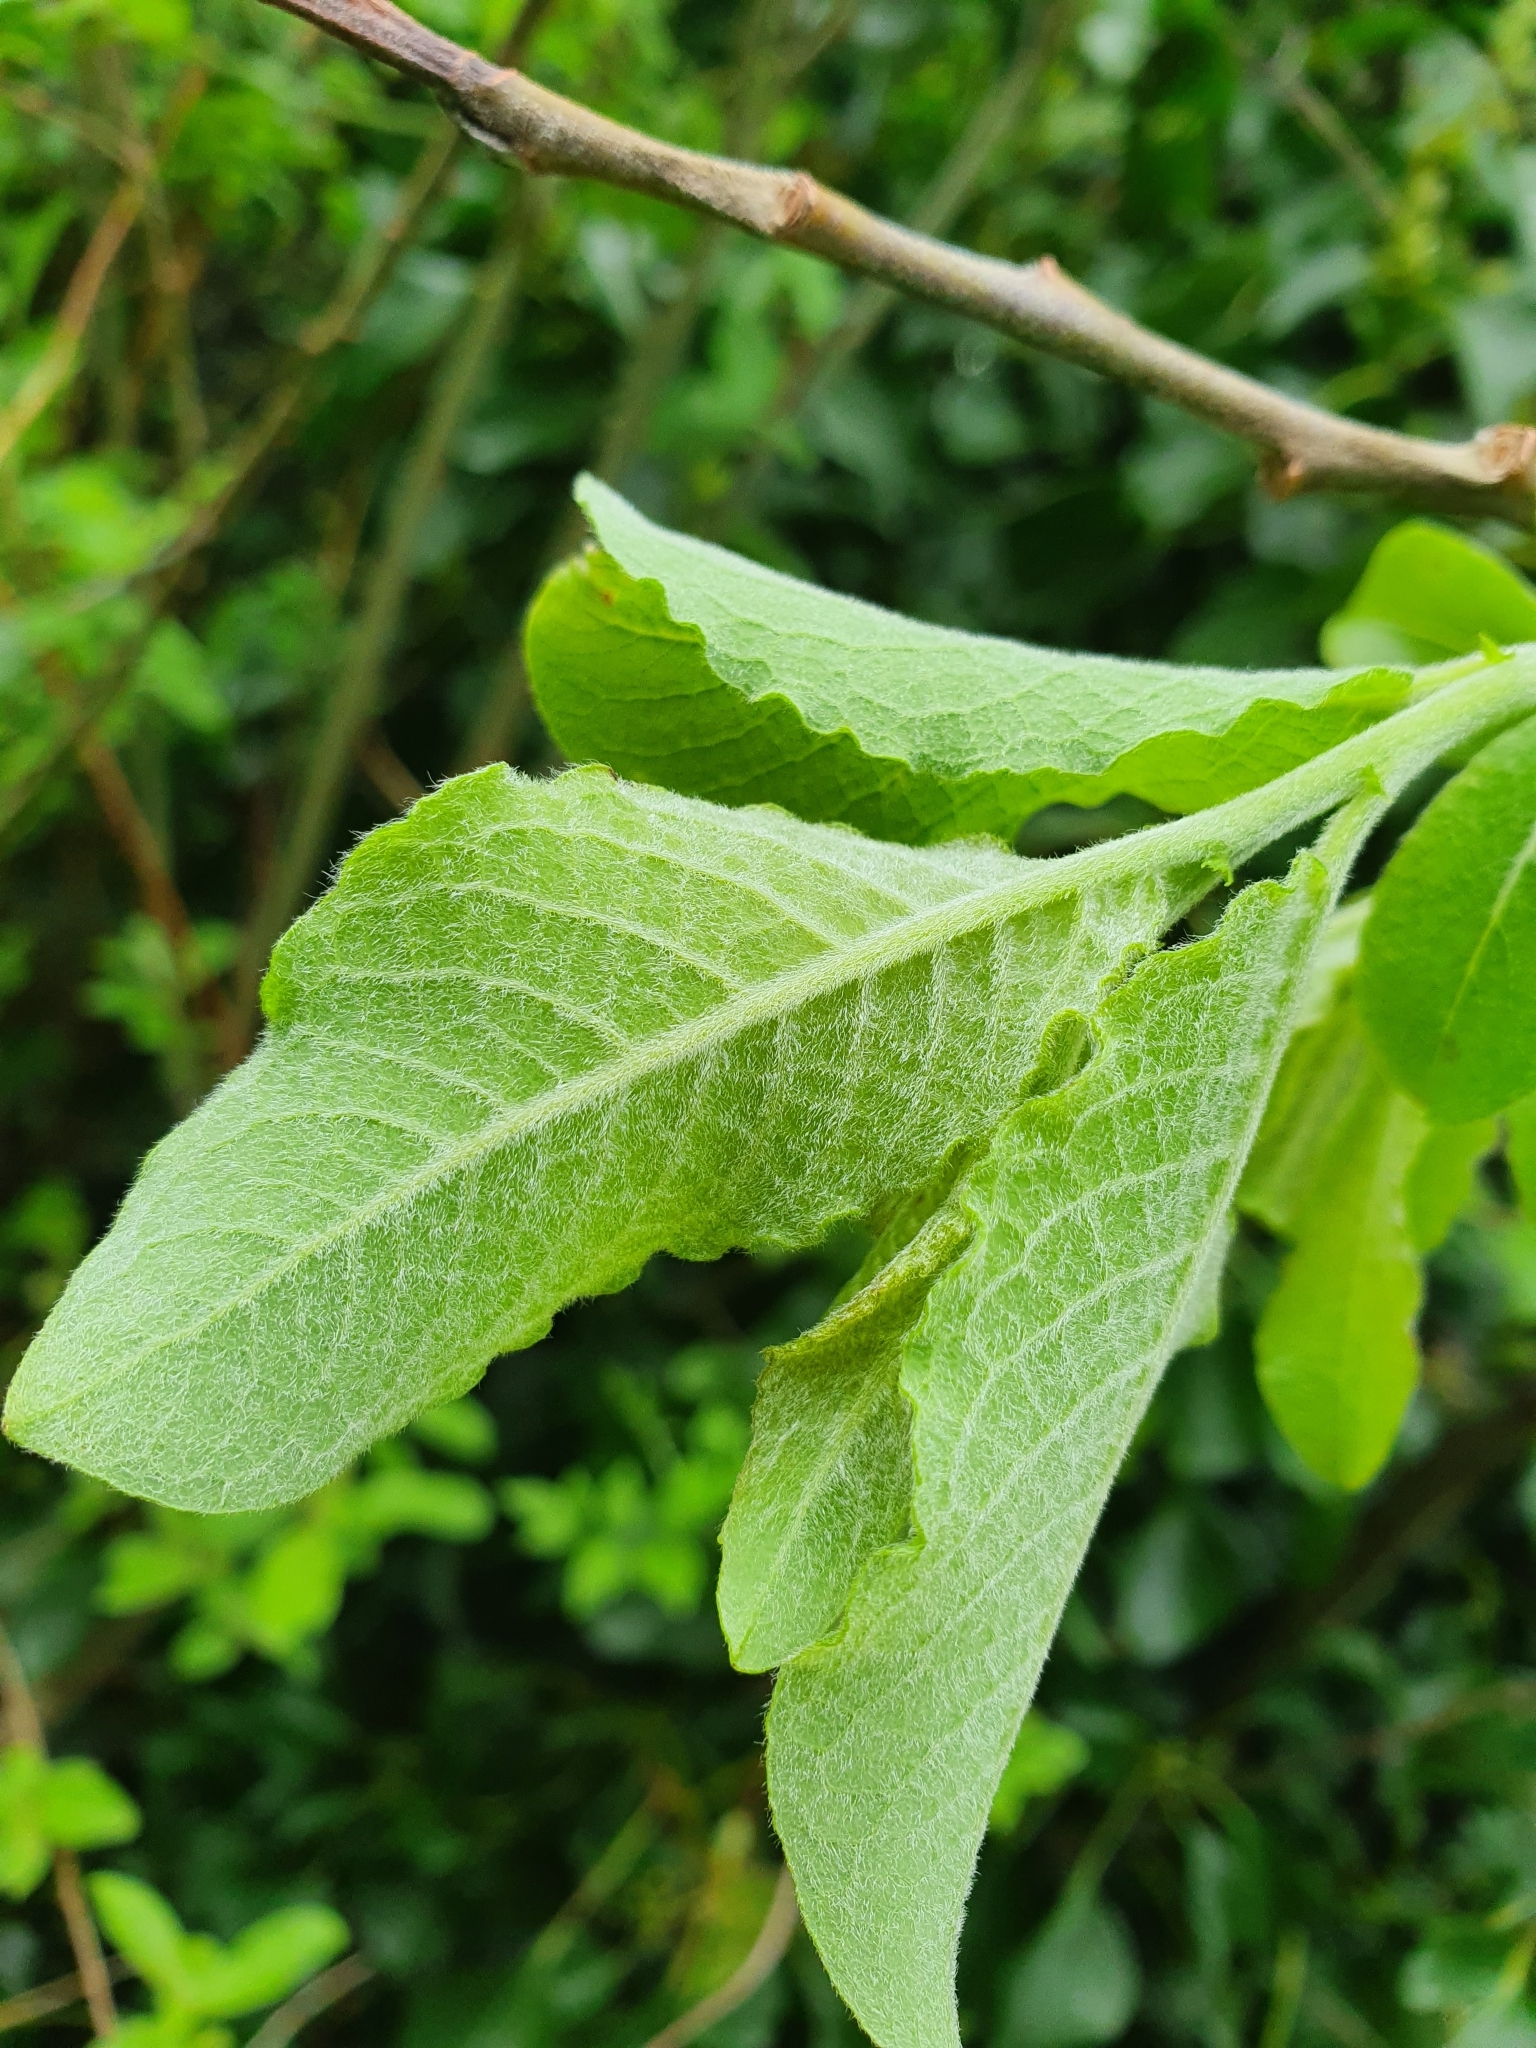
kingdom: Plantae
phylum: Tracheophyta
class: Magnoliopsida
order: Malpighiales
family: Salicaceae
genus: Salix
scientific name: Salix cinerea
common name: Common sallow
